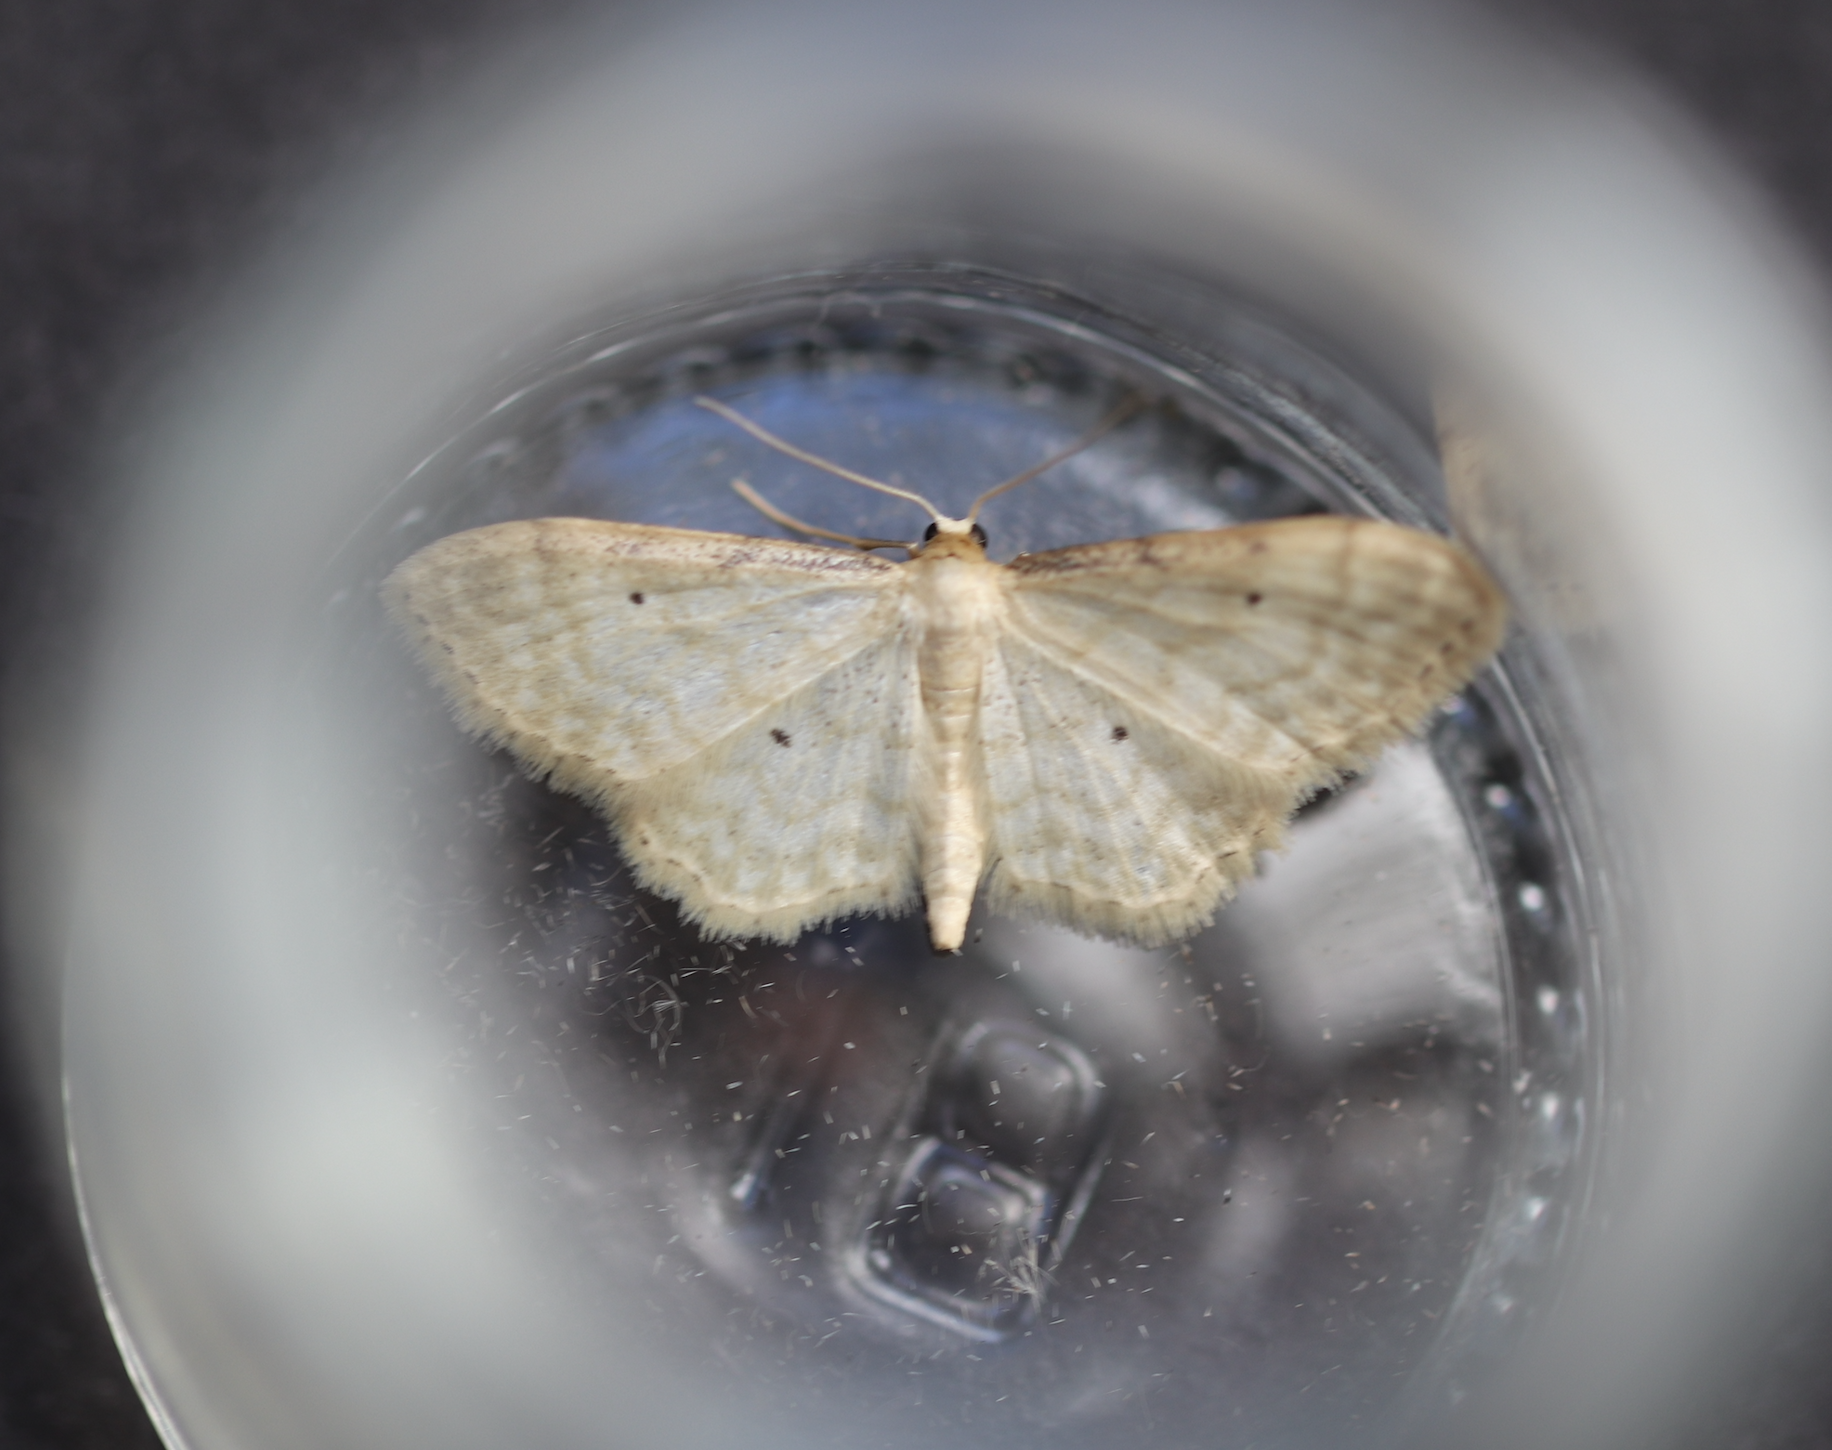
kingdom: Animalia
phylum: Arthropoda
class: Insecta
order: Lepidoptera
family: Geometridae
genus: Idaea
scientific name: Idaea humiliata
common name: Isle of wight wave
